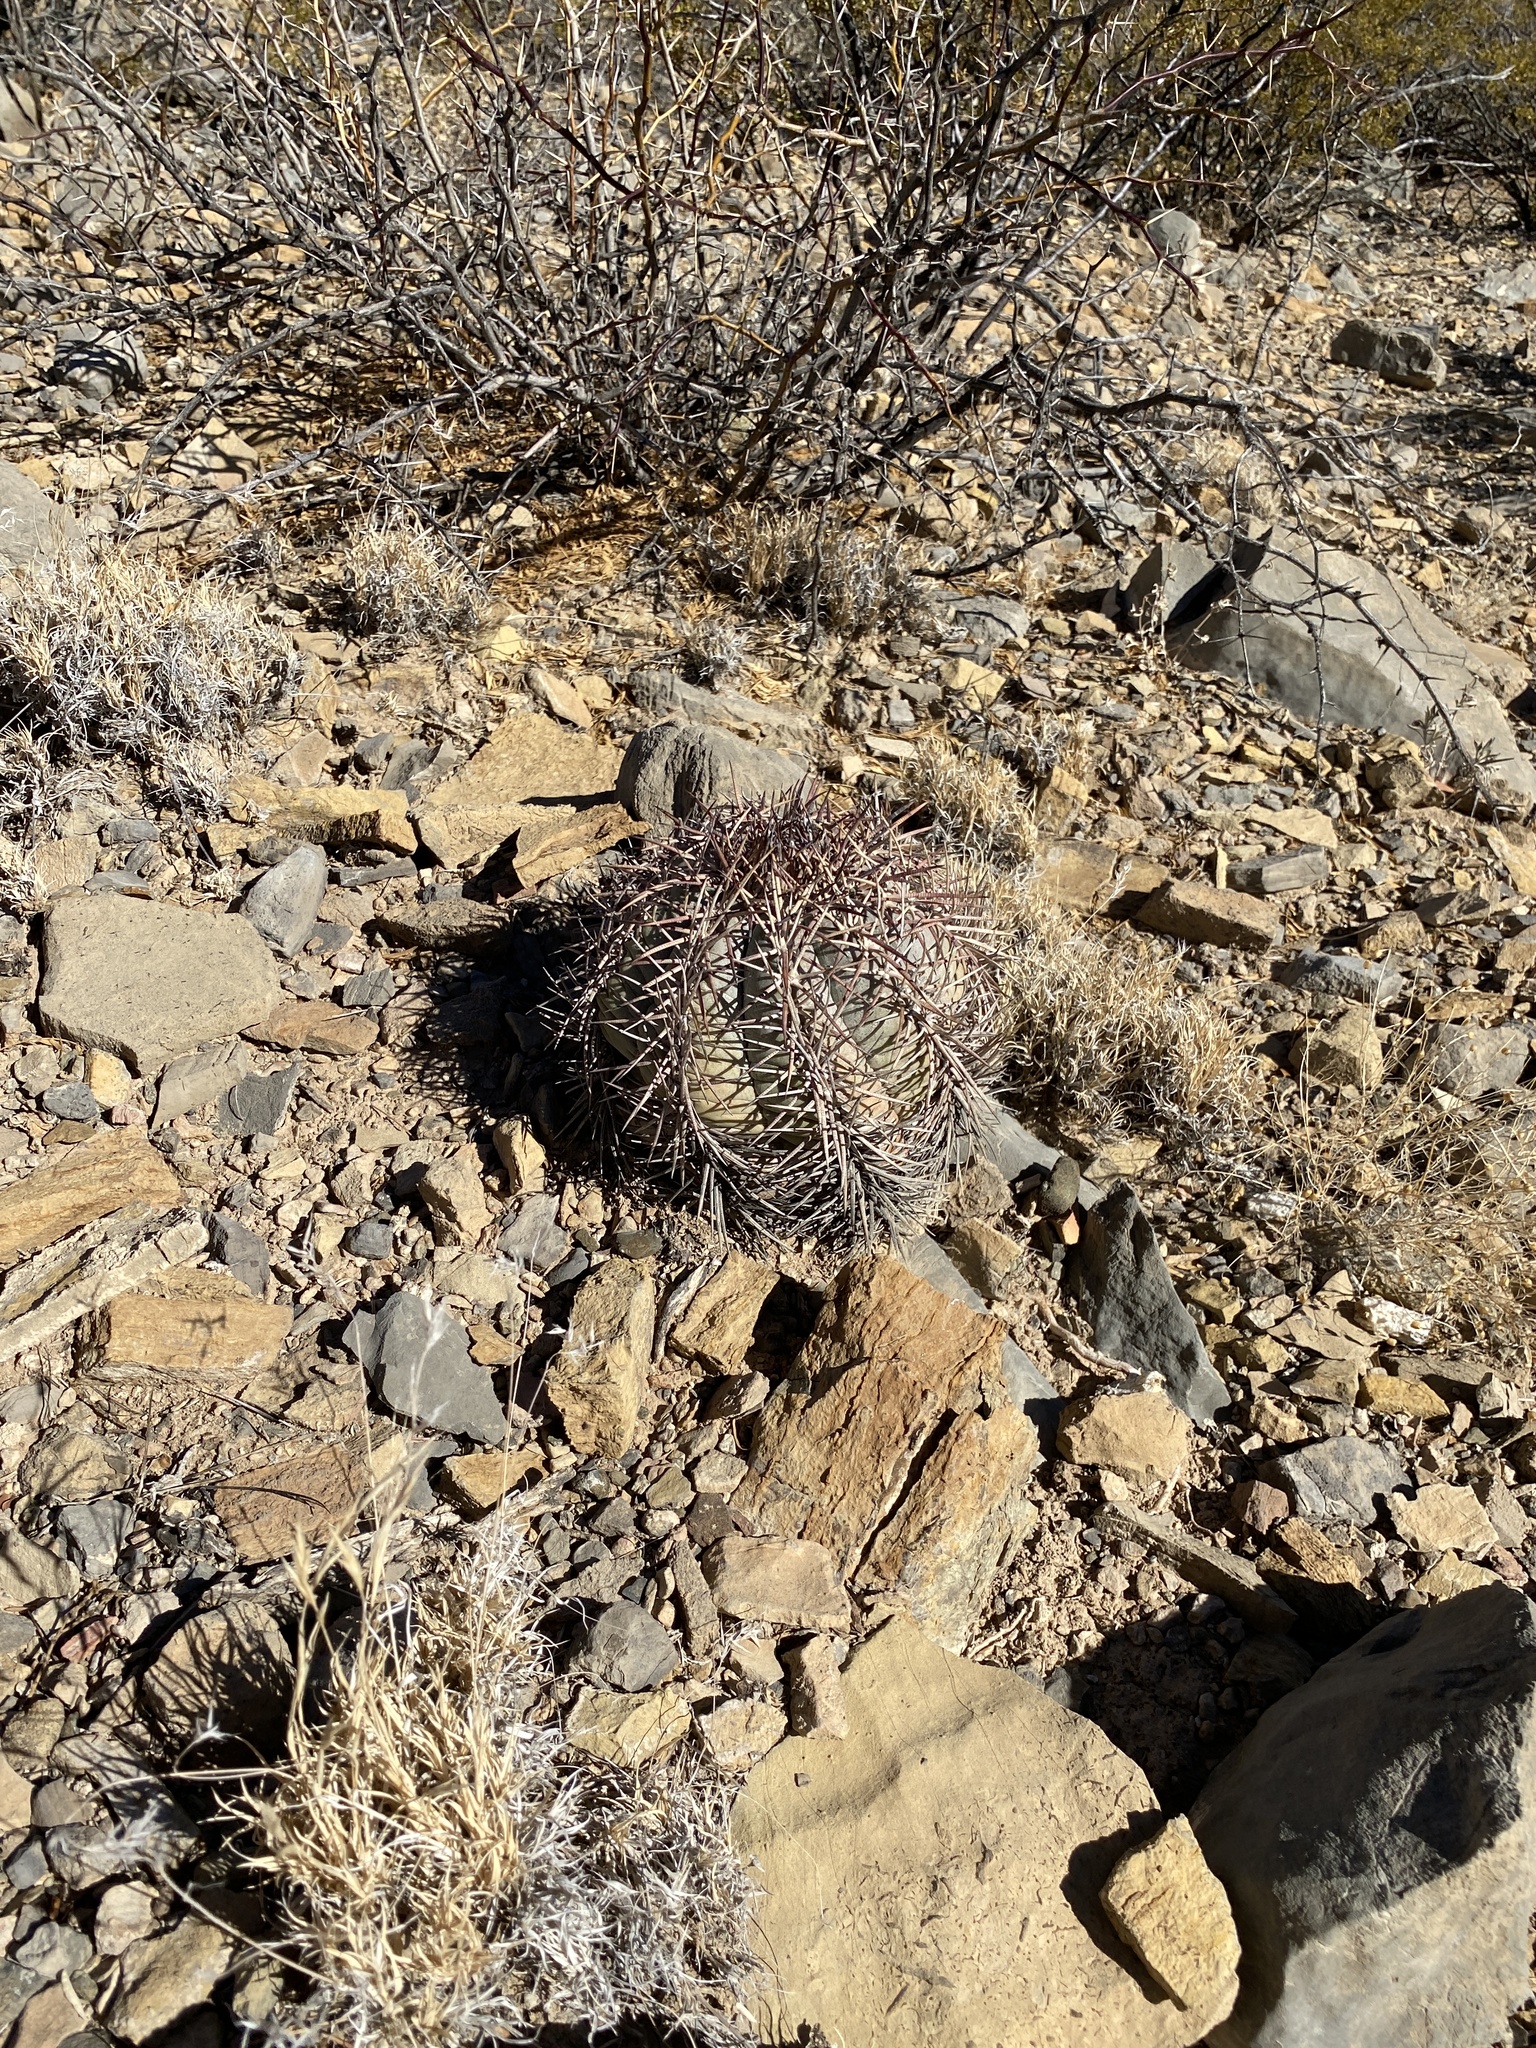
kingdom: Plantae
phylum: Tracheophyta
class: Magnoliopsida
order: Caryophyllales
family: Cactaceae
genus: Echinocactus
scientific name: Echinocactus horizonthalonius
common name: Devilshead
